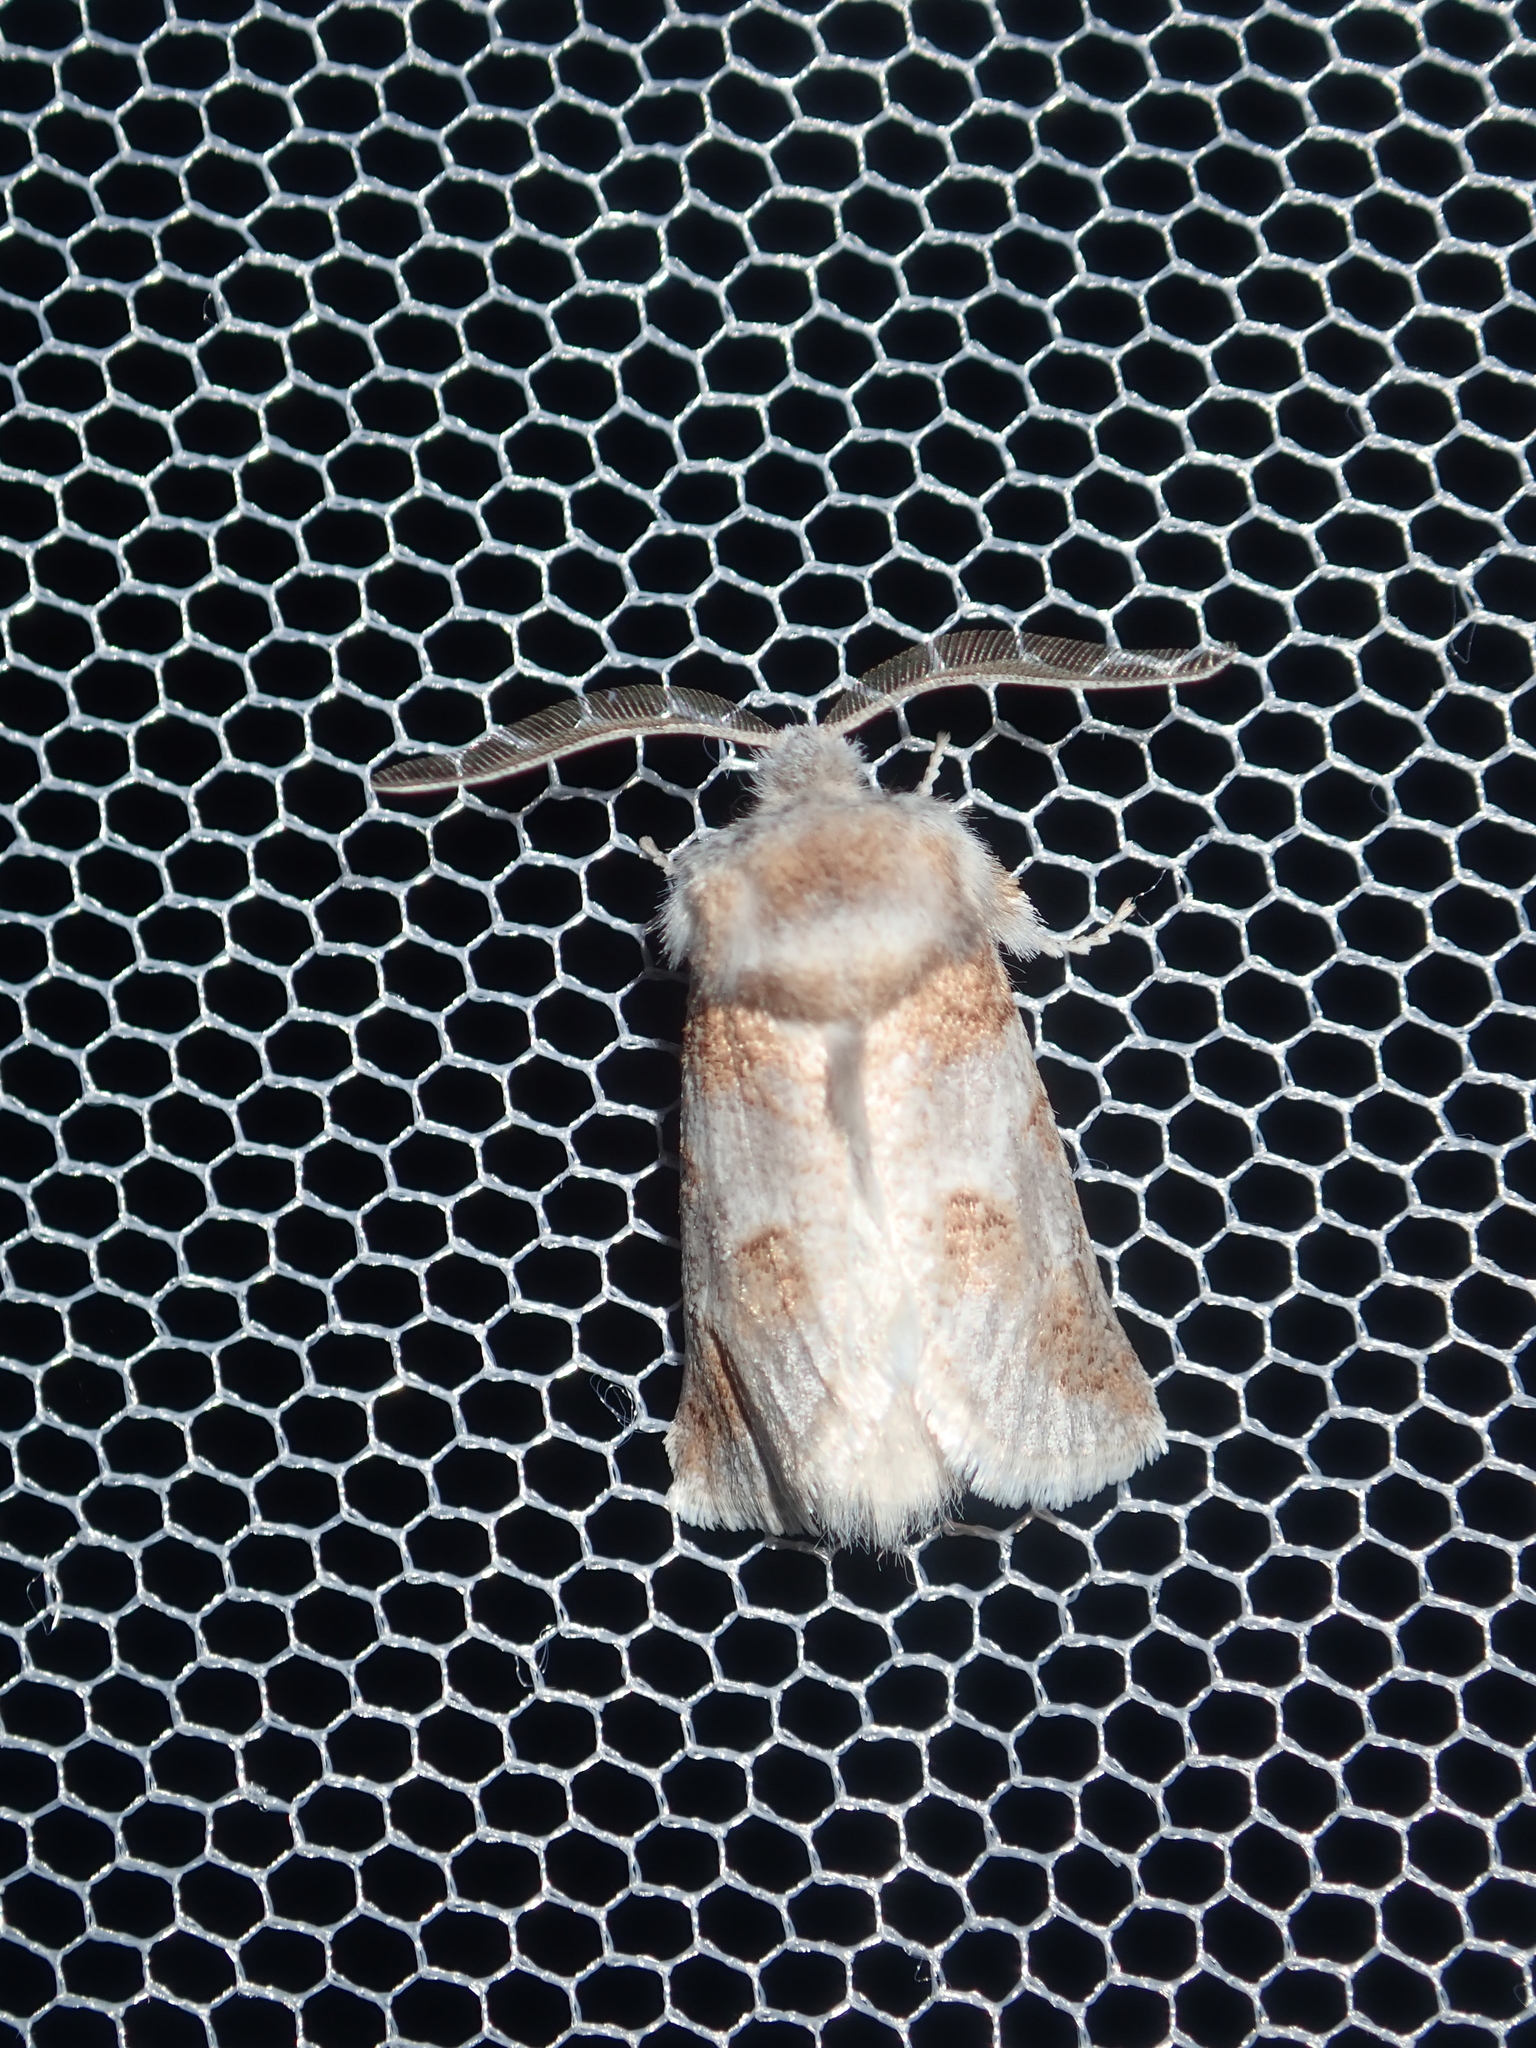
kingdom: Animalia
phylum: Arthropoda
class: Insecta
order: Lepidoptera
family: Cossidae
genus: Culama
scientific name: Culama dasythrix
